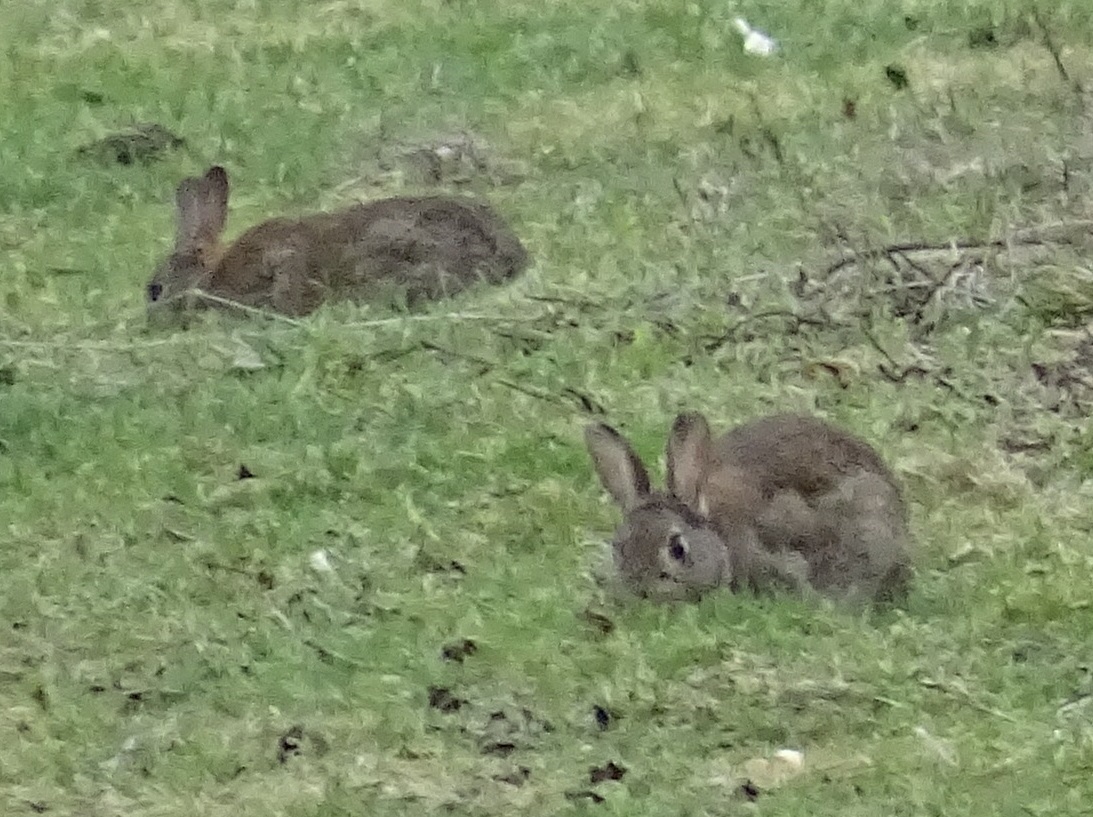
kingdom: Animalia
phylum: Chordata
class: Mammalia
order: Lagomorpha
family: Leporidae
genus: Oryctolagus
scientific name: Oryctolagus cuniculus
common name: European rabbit
